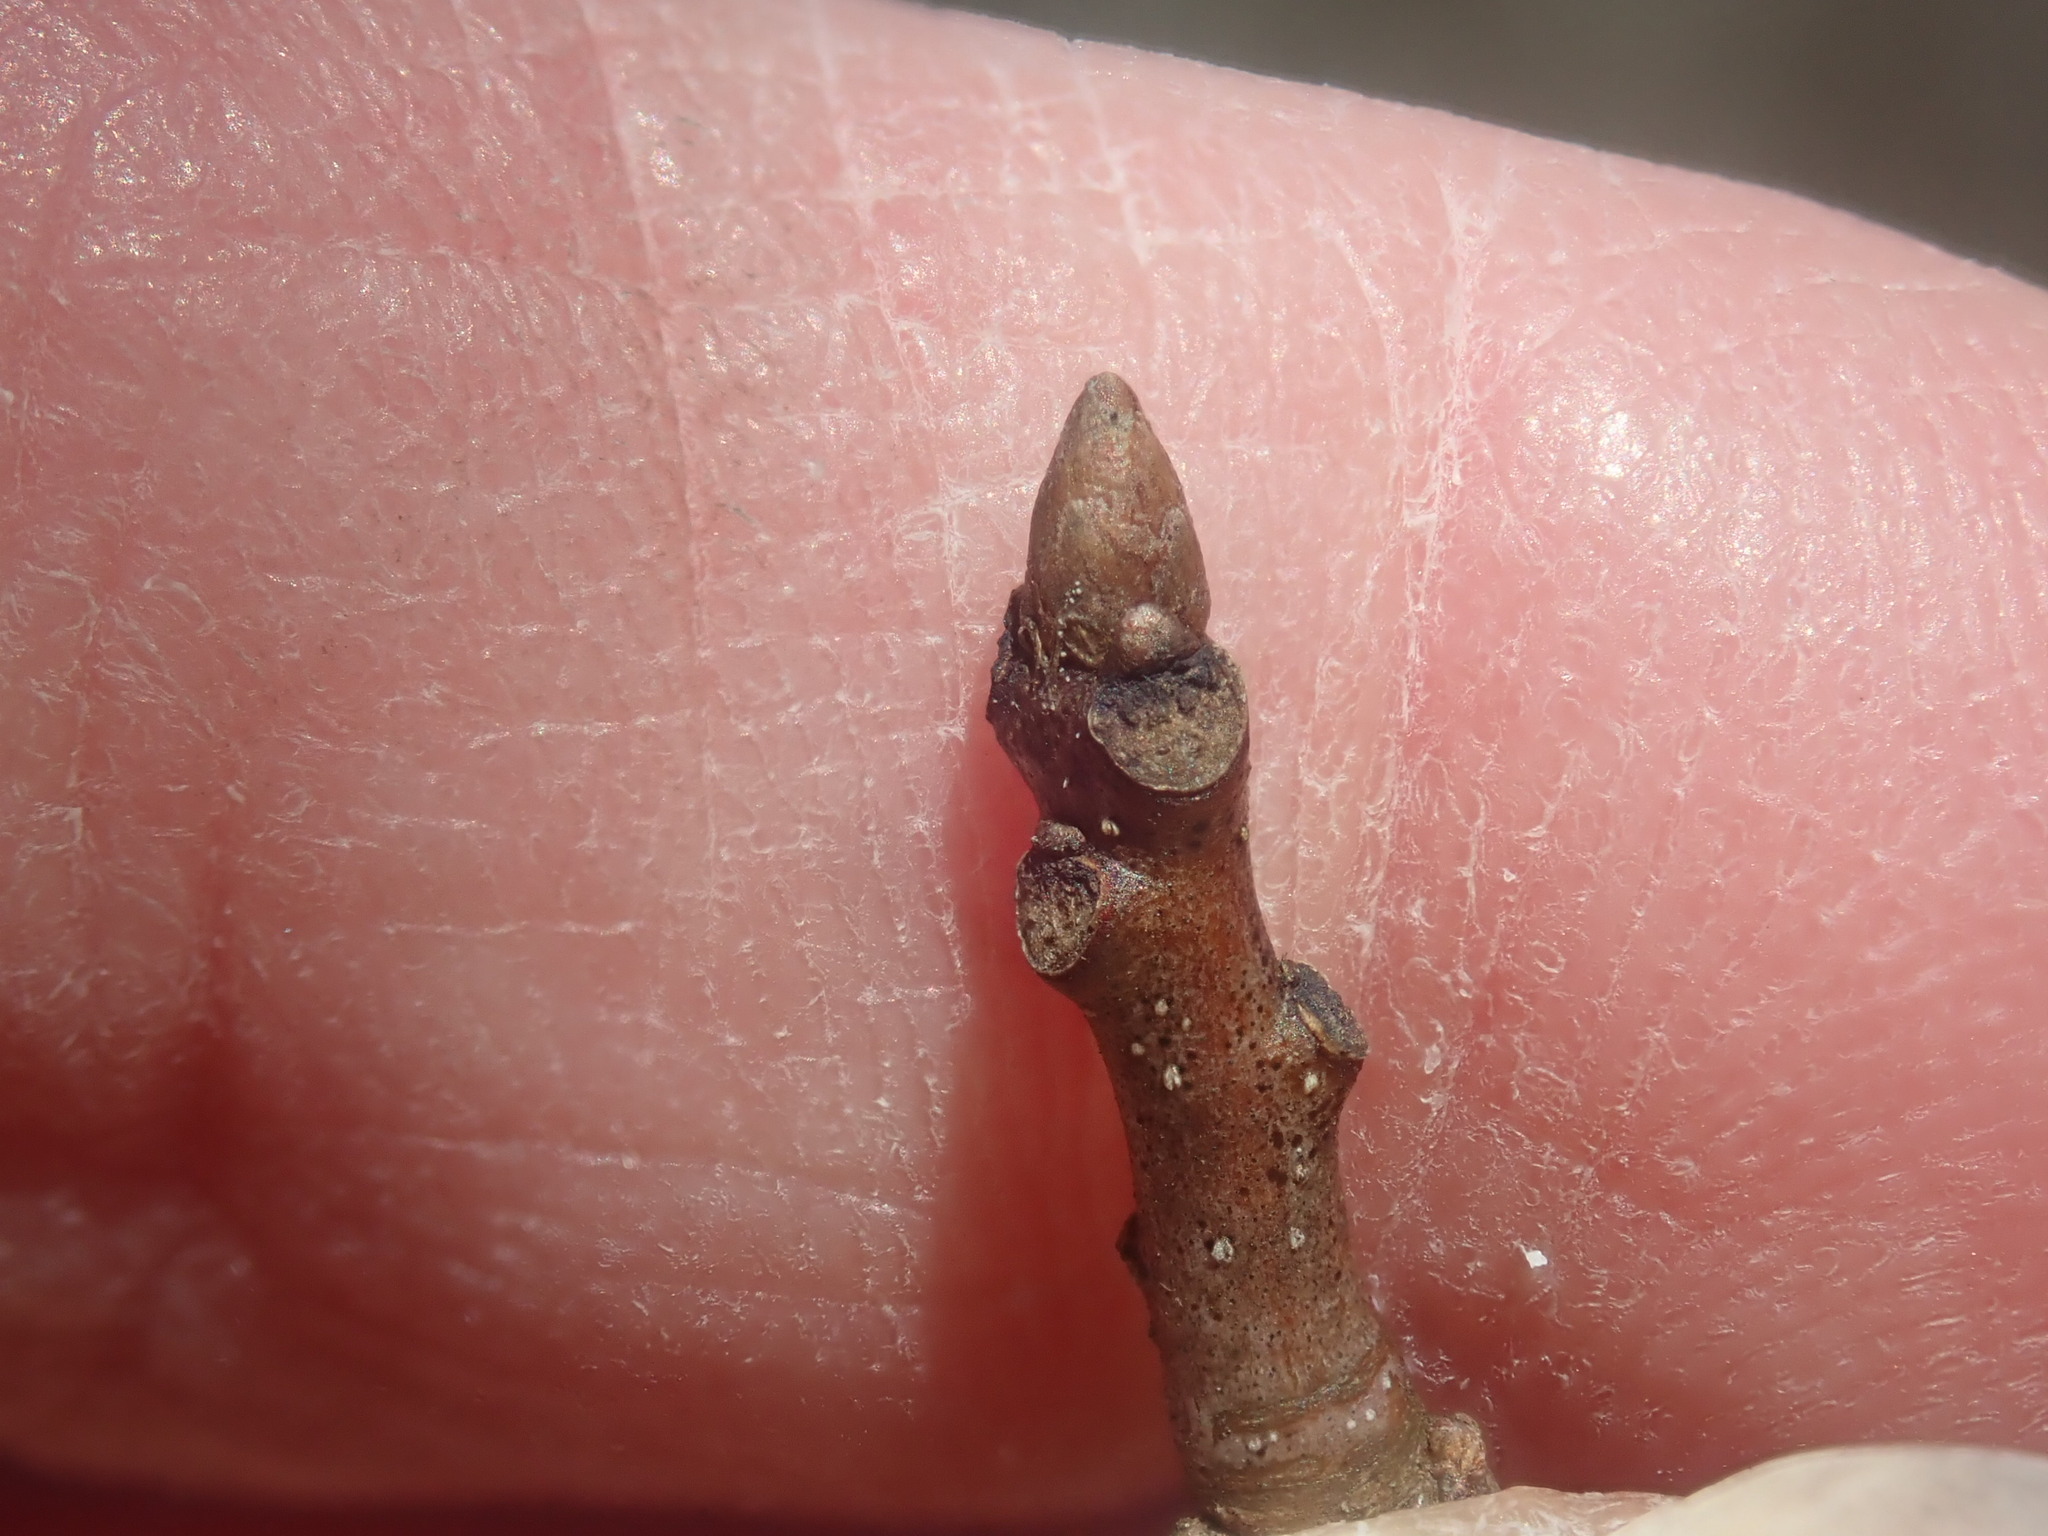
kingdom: Plantae
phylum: Tracheophyta
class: Magnoliopsida
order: Fagales
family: Fagaceae
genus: Quercus
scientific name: Quercus palustris
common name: Pin oak
